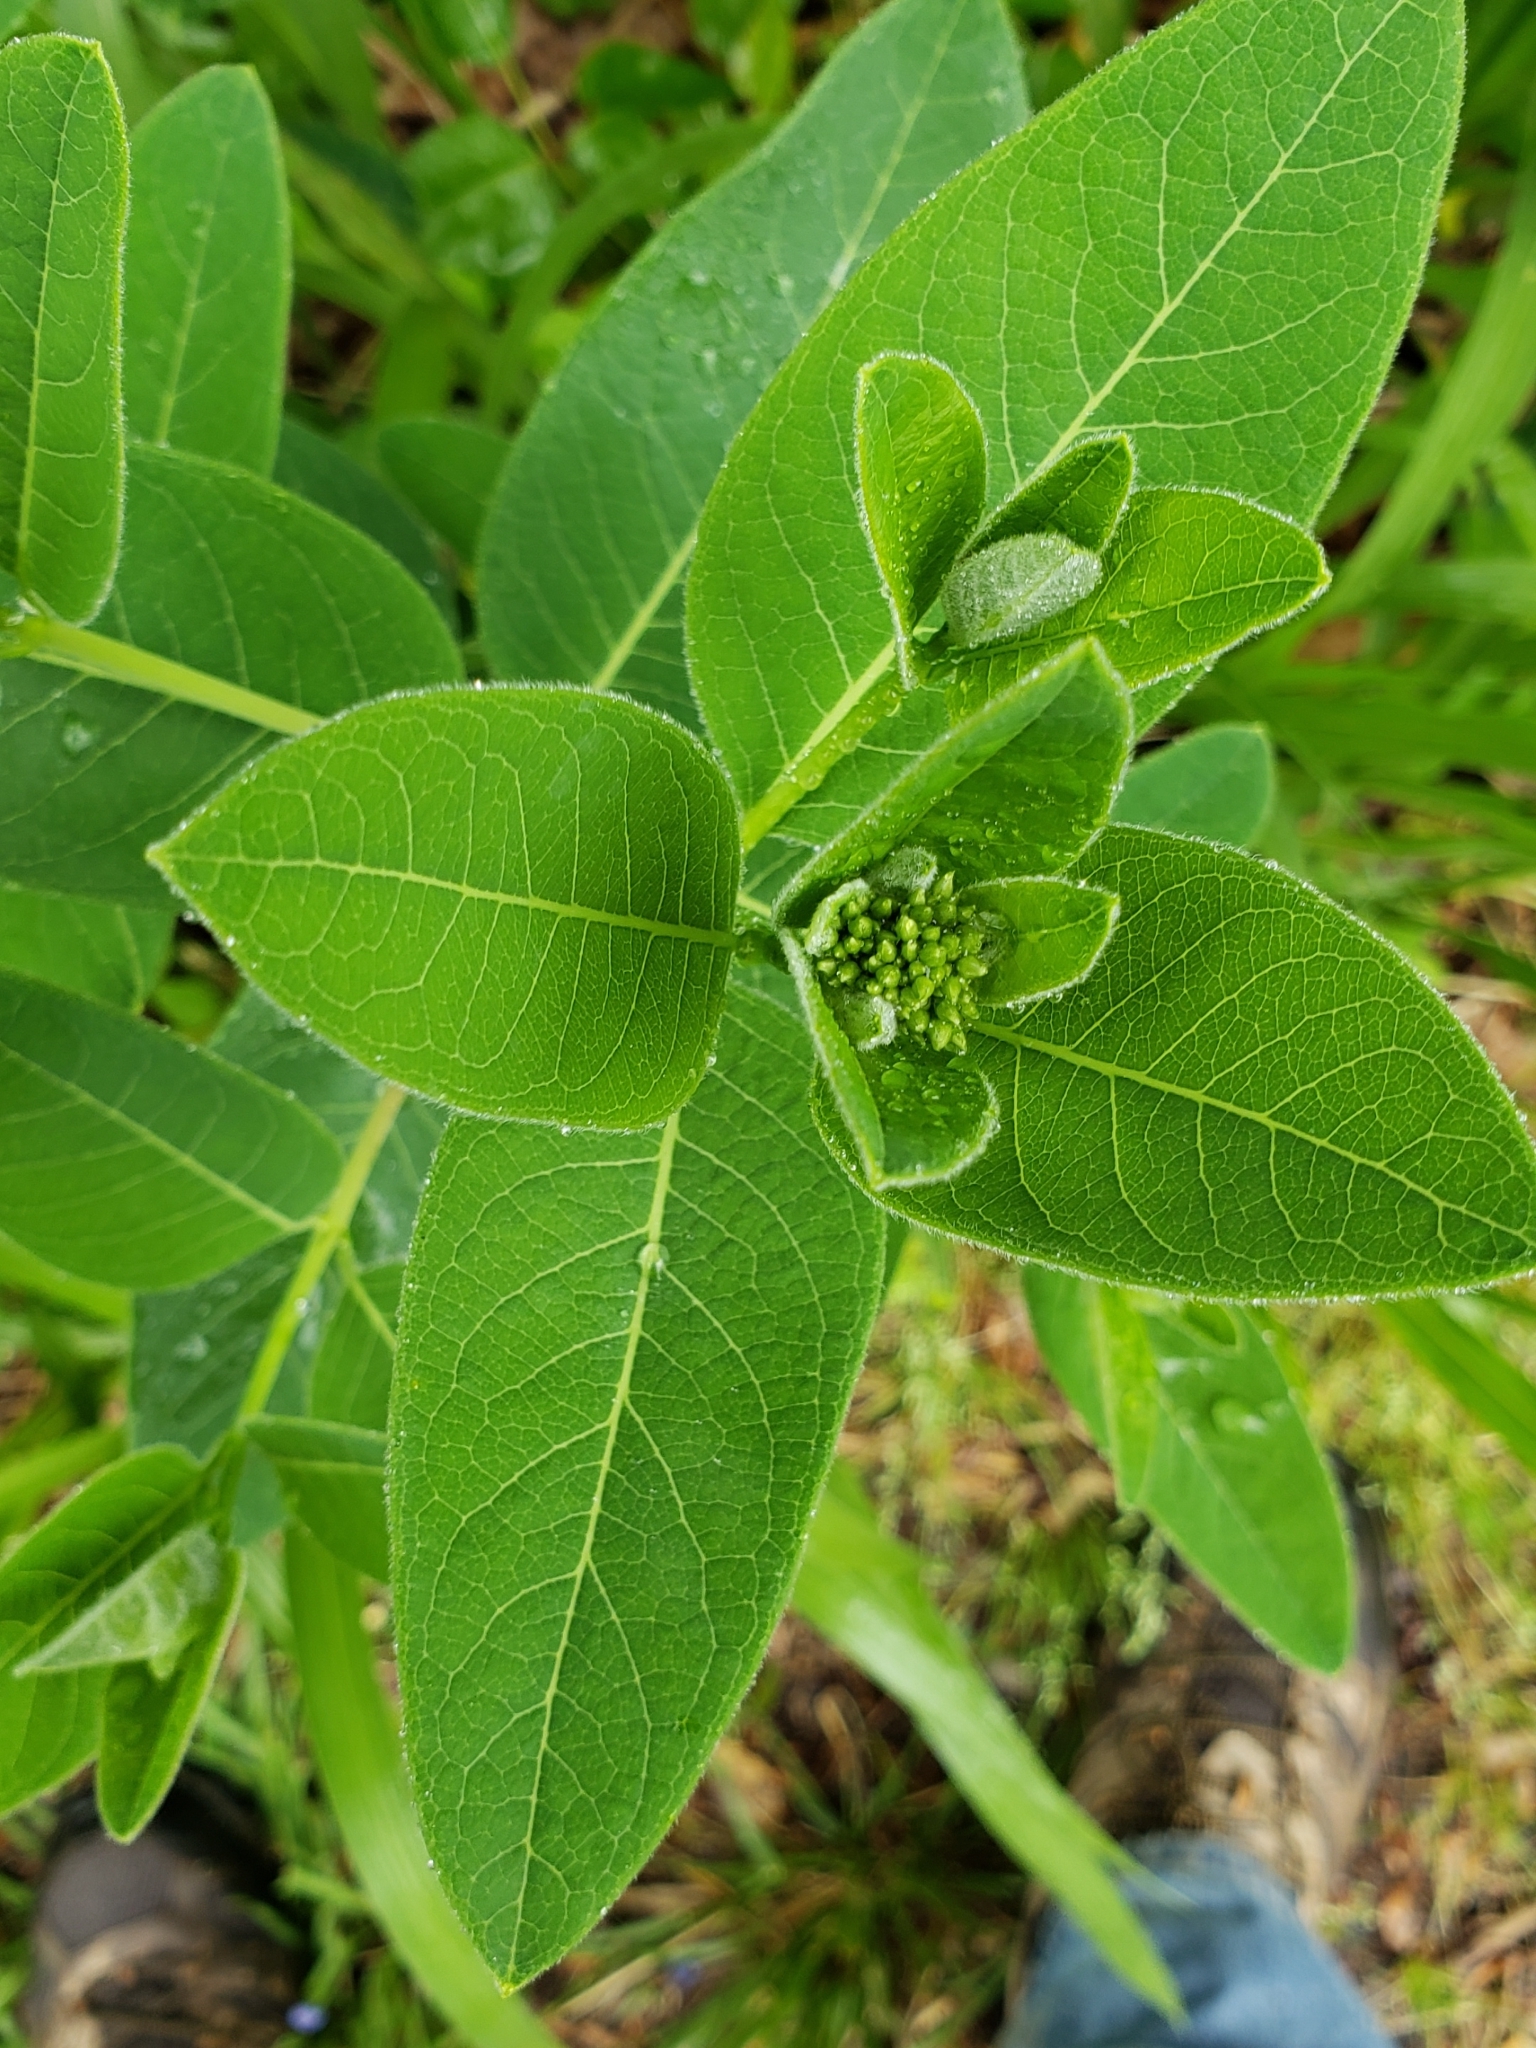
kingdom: Plantae
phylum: Tracheophyta
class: Magnoliopsida
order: Gentianales
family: Apocynaceae
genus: Apocynum
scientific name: Apocynum cannabinum
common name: Hemp dogbane
